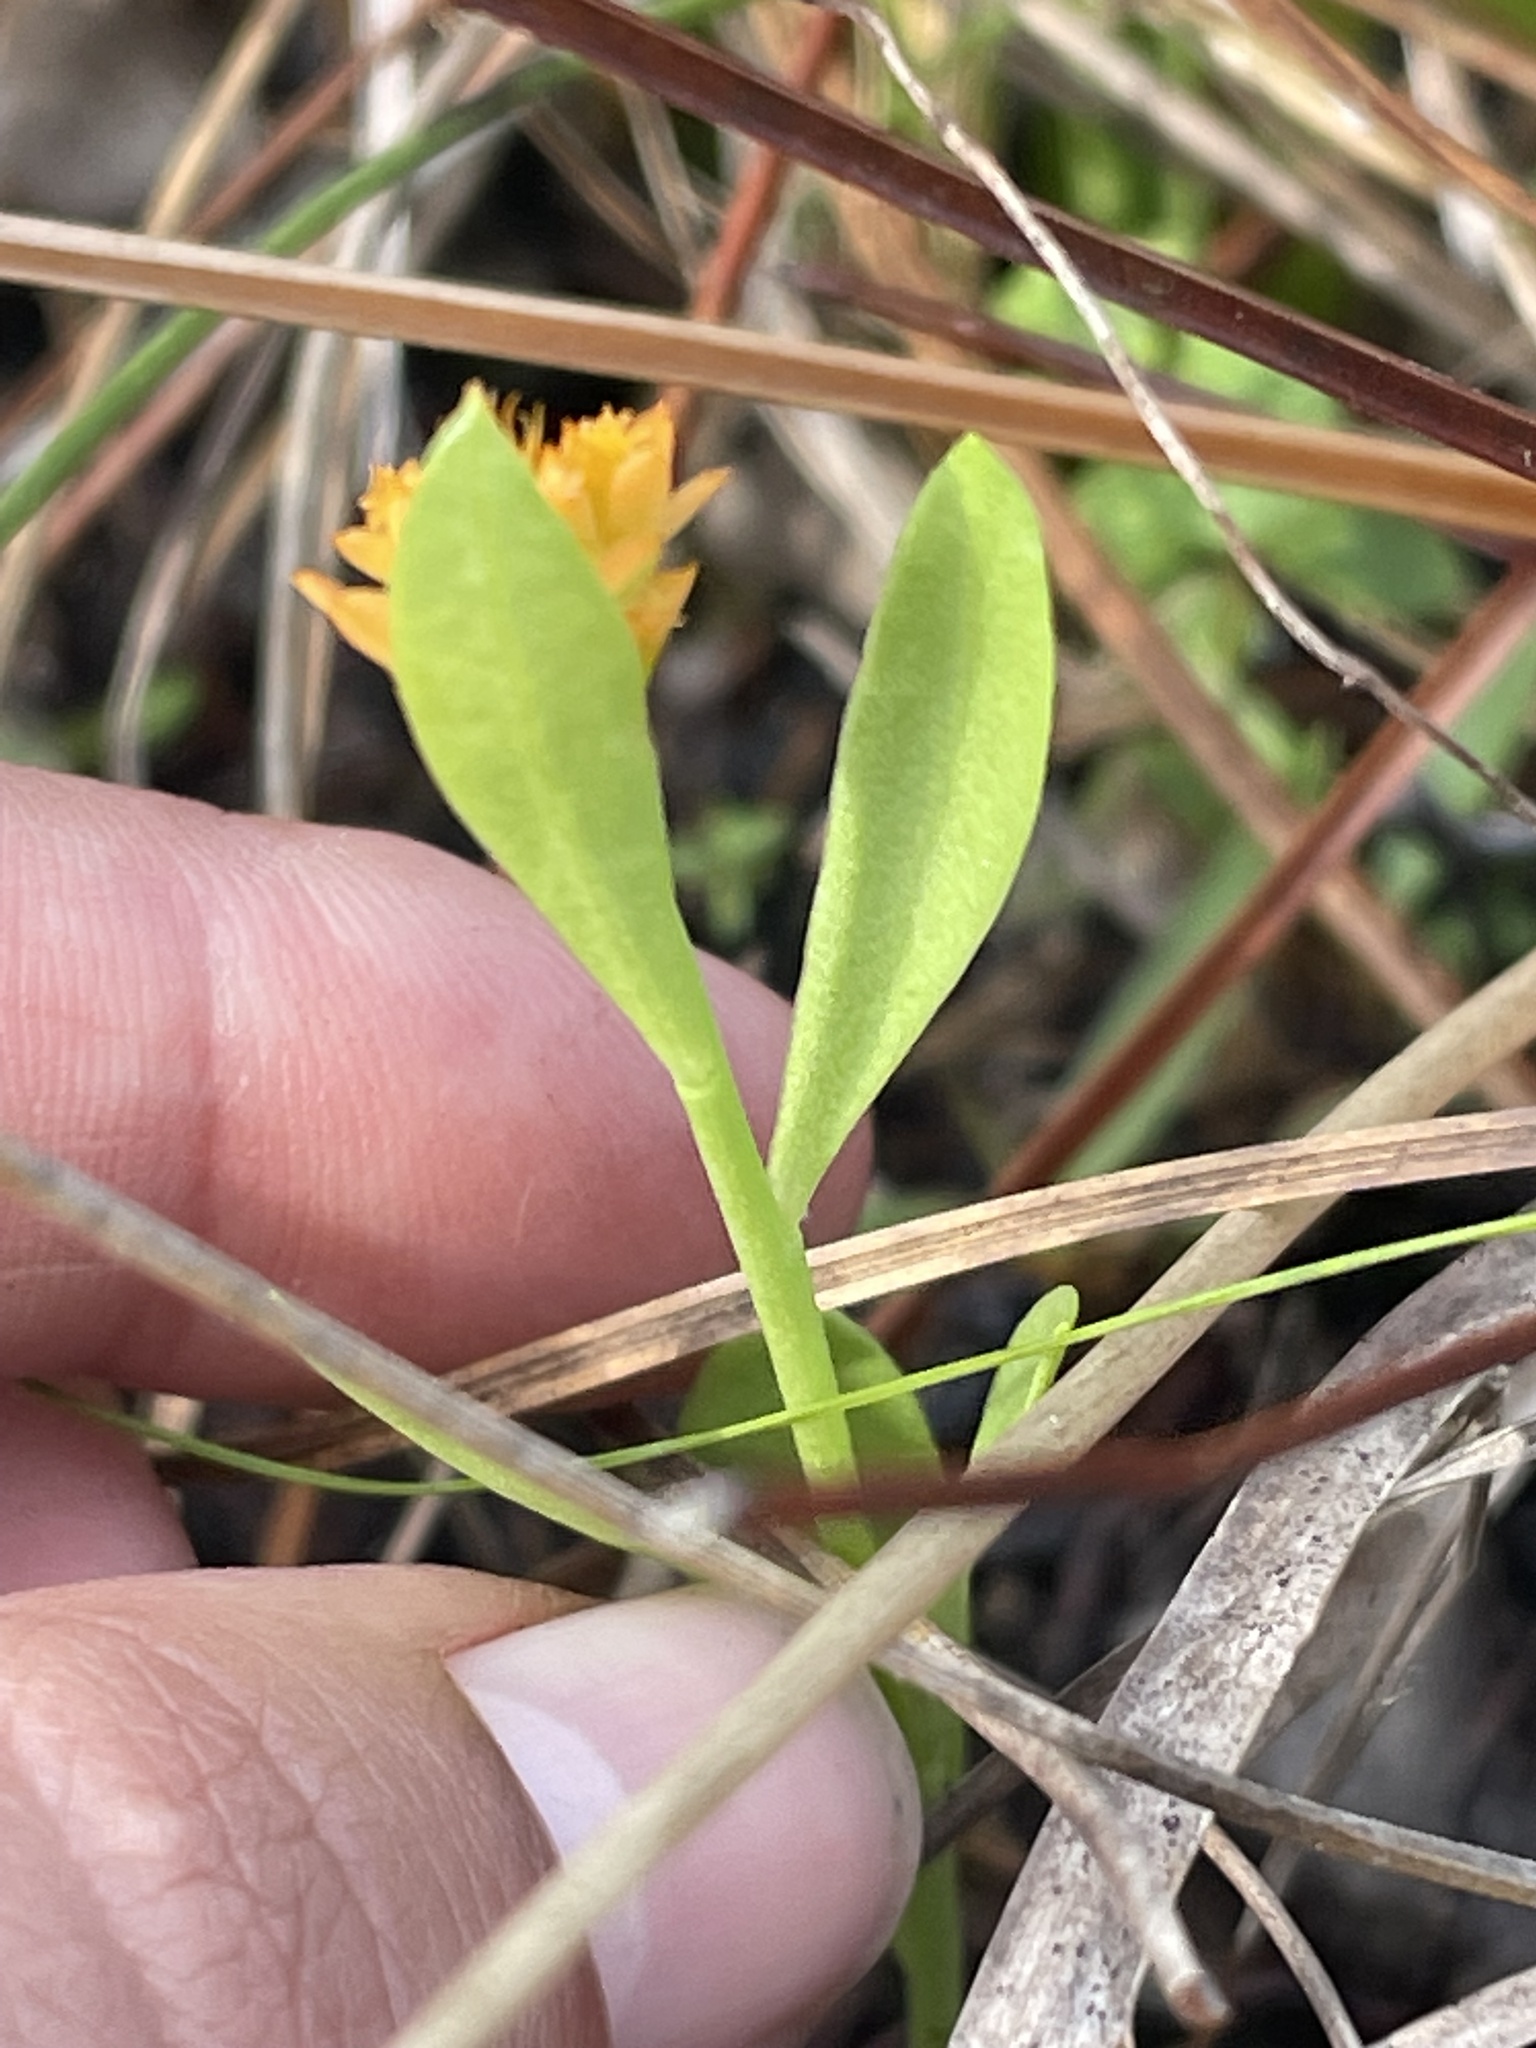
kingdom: Plantae
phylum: Tracheophyta
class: Magnoliopsida
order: Fabales
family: Polygalaceae
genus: Polygala
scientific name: Polygala lutea
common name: Orange milkwort
